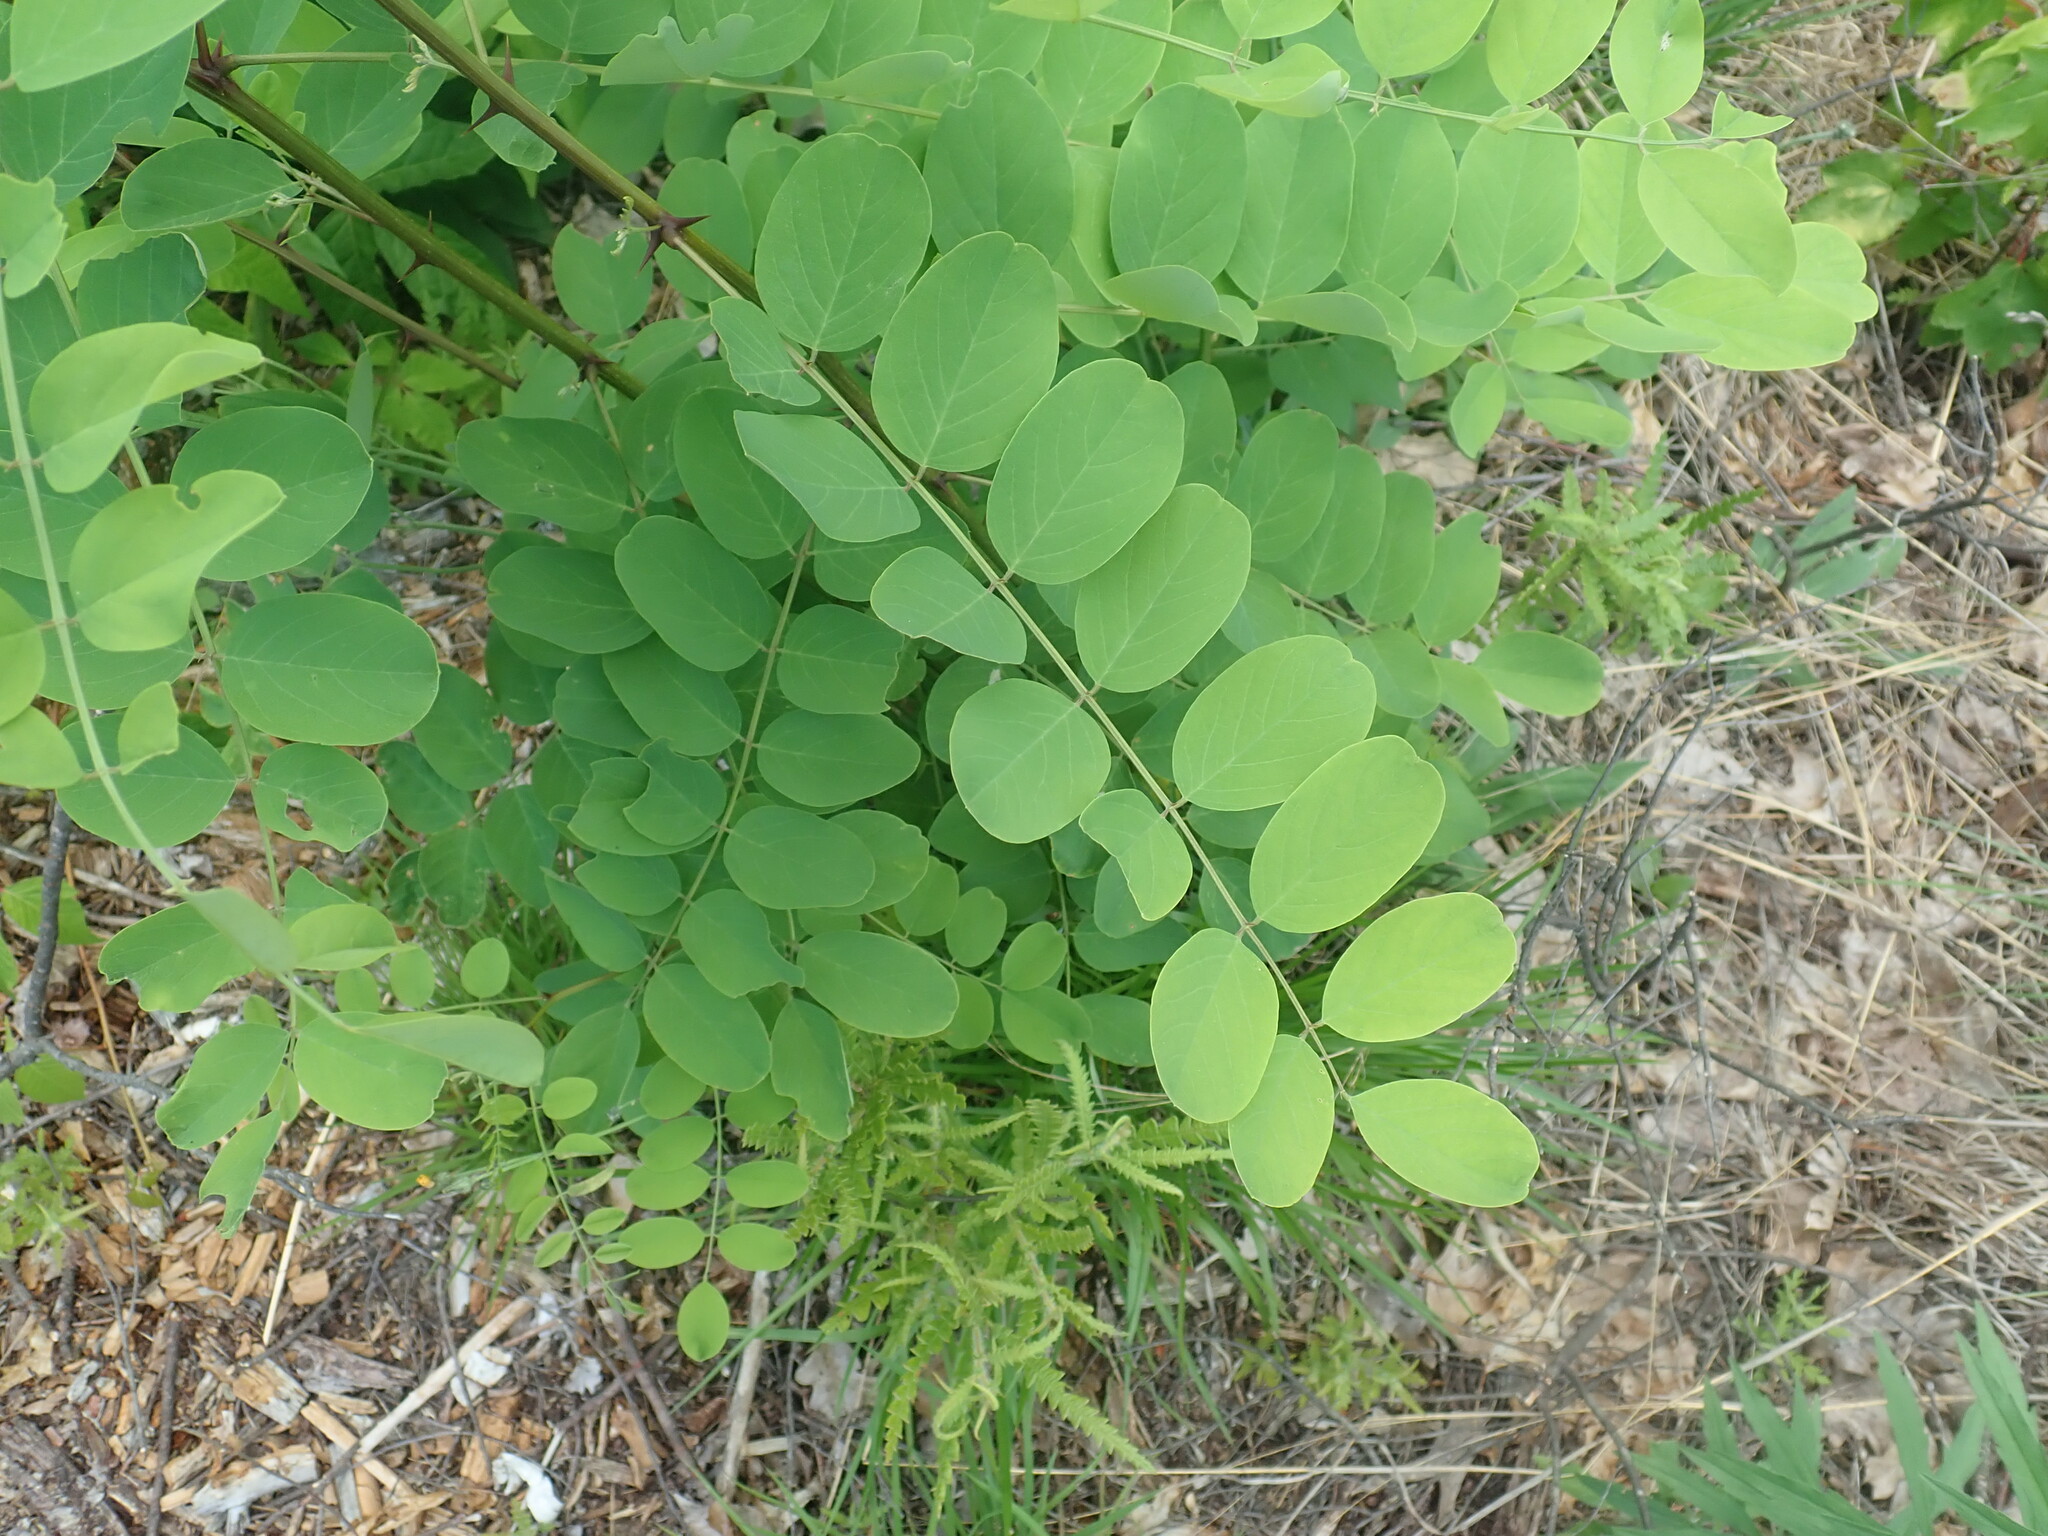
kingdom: Plantae
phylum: Tracheophyta
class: Magnoliopsida
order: Fabales
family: Fabaceae
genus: Robinia
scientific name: Robinia pseudoacacia
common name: Black locust
